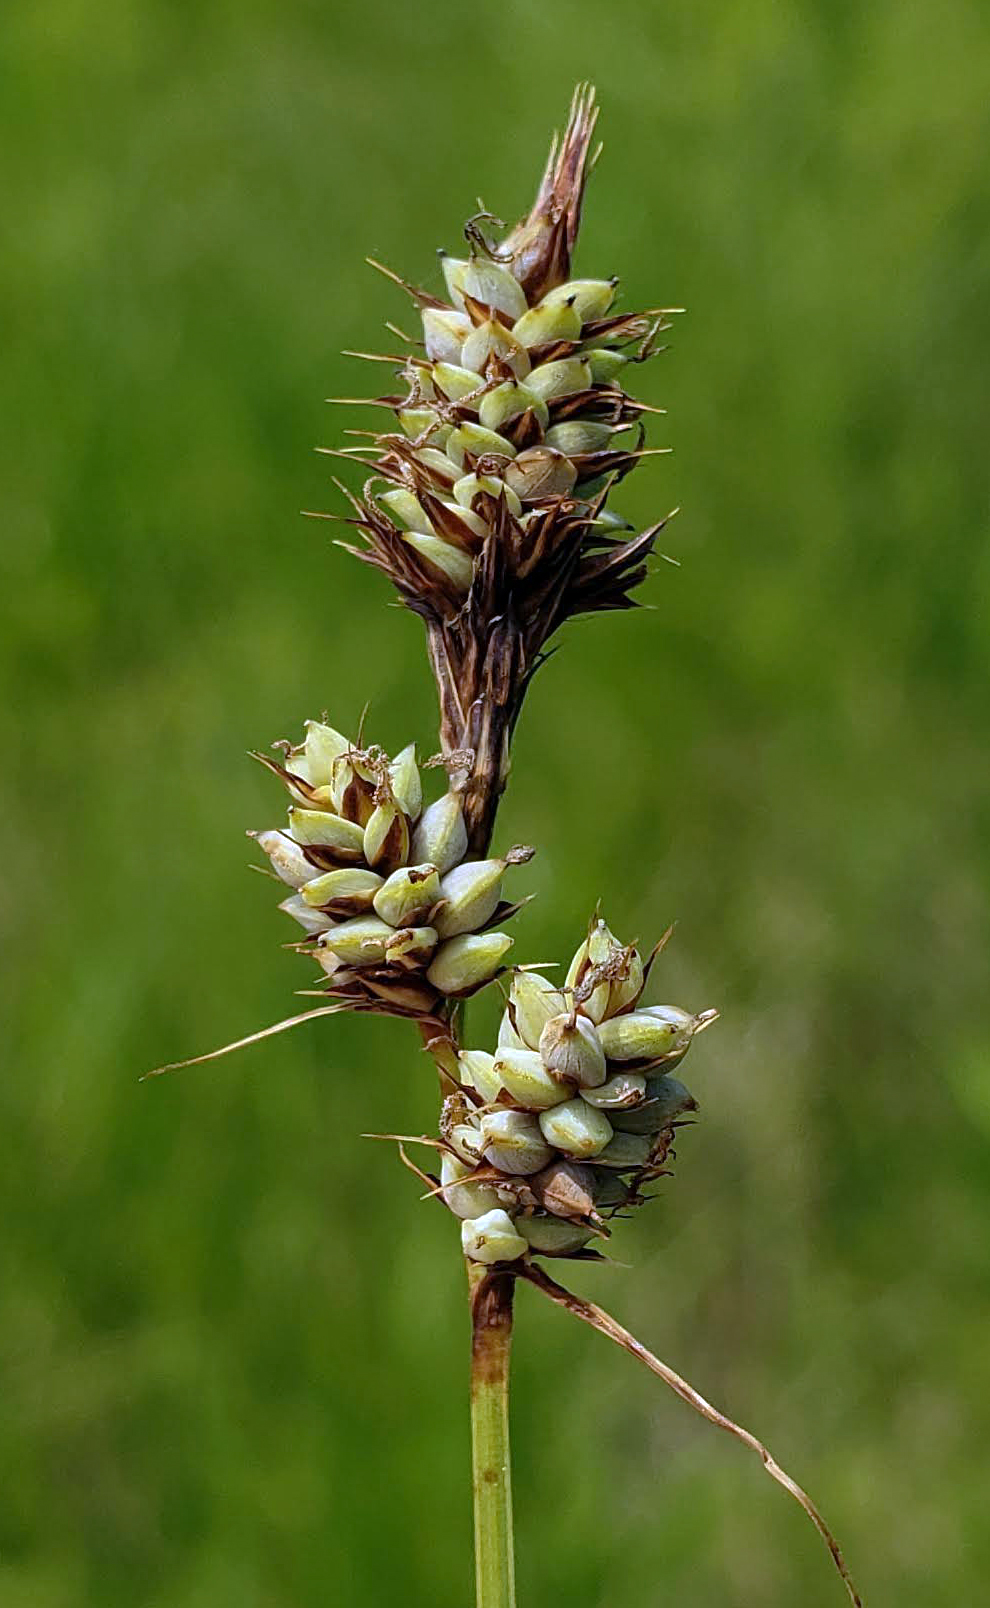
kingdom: Plantae
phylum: Tracheophyta
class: Liliopsida
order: Poales
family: Cyperaceae
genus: Carex
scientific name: Carex buxbaumii
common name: Club sedge
